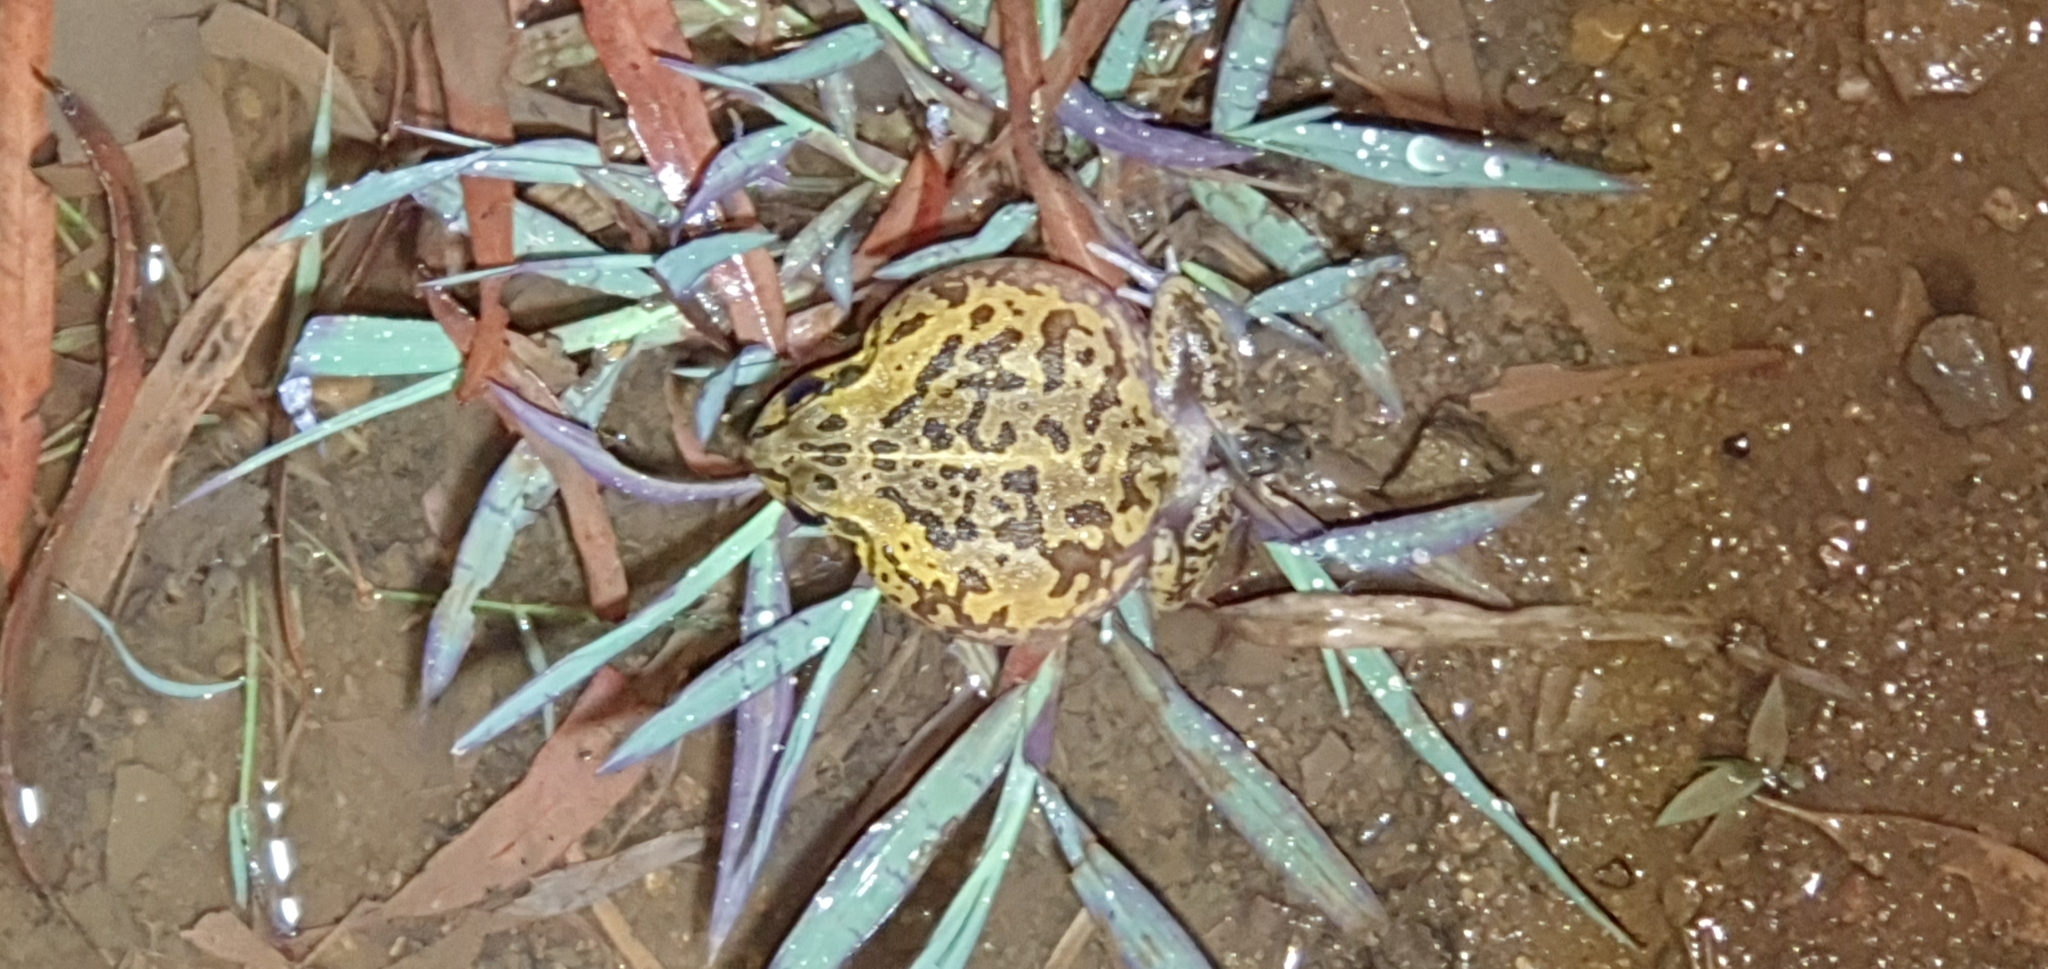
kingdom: Animalia
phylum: Chordata
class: Amphibia
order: Anura
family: Pelodryadidae
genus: Ranoidea
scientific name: Ranoidea brevipes
